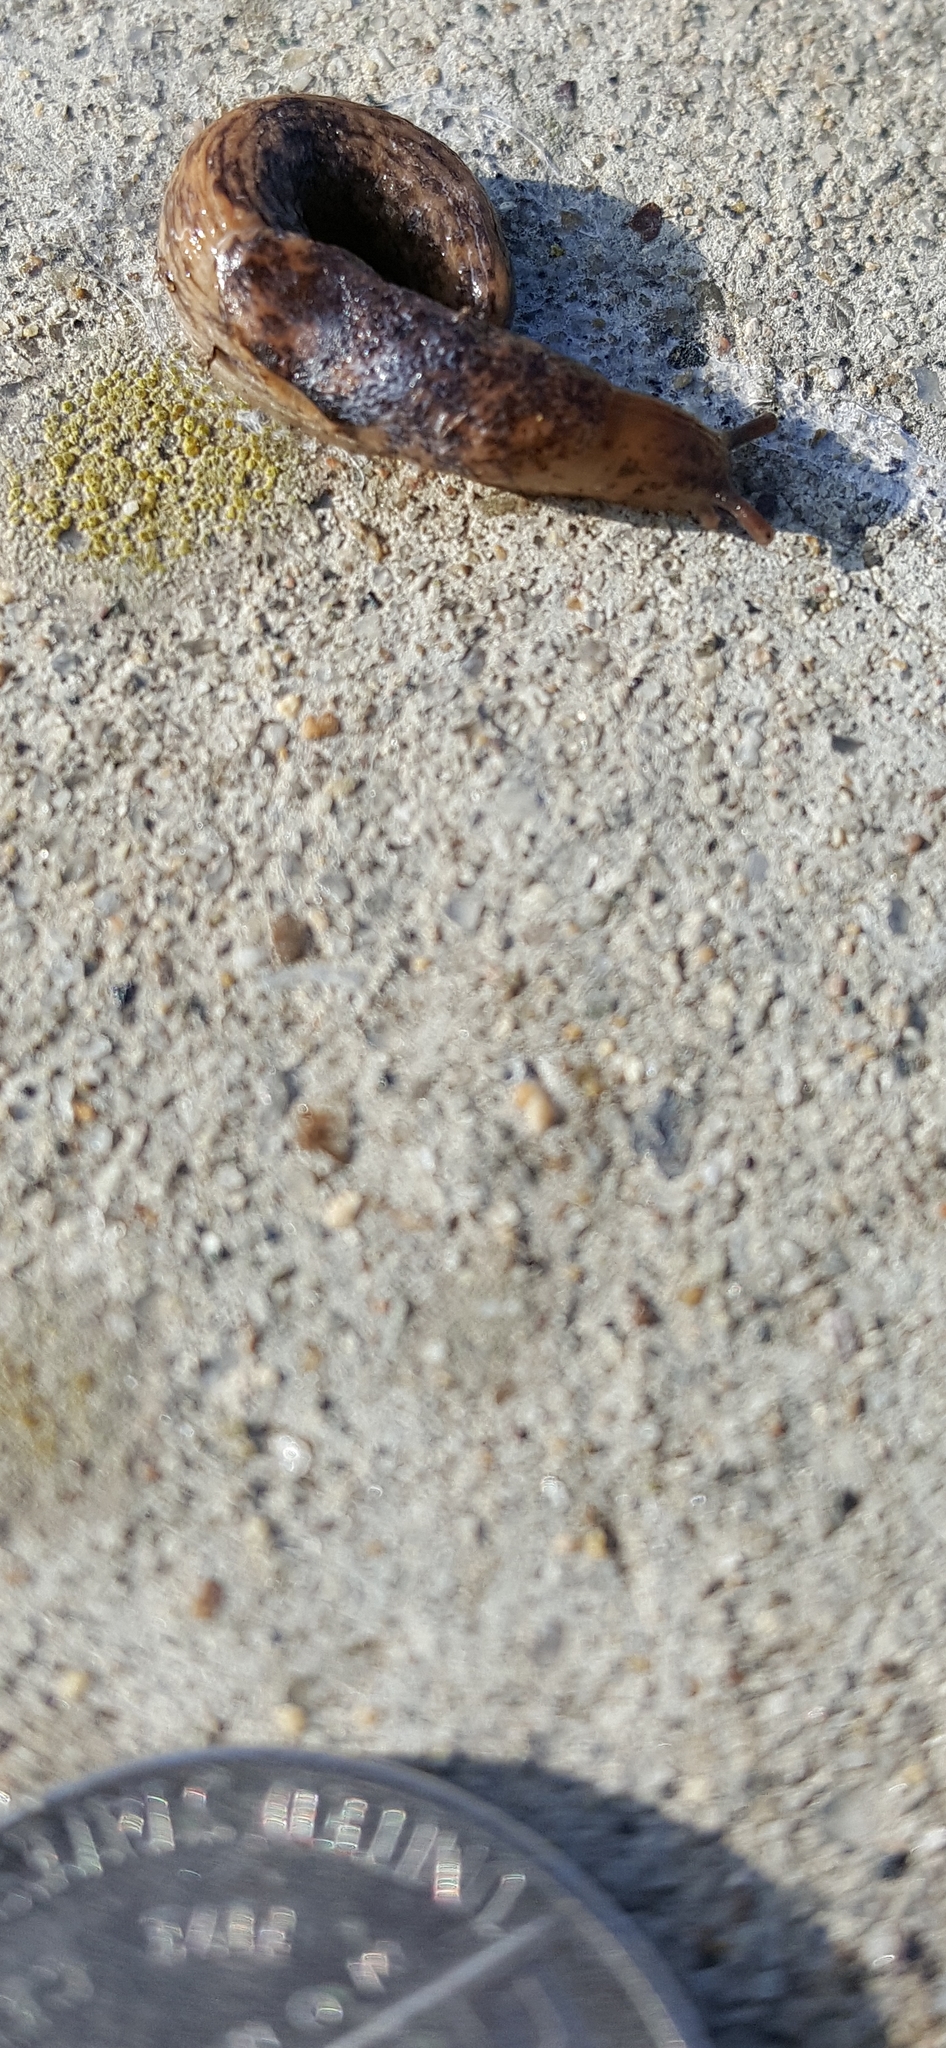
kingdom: Animalia
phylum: Mollusca
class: Gastropoda
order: Stylommatophora
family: Agriolimacidae
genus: Deroceras
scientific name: Deroceras reticulatum
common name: Gray field slug
